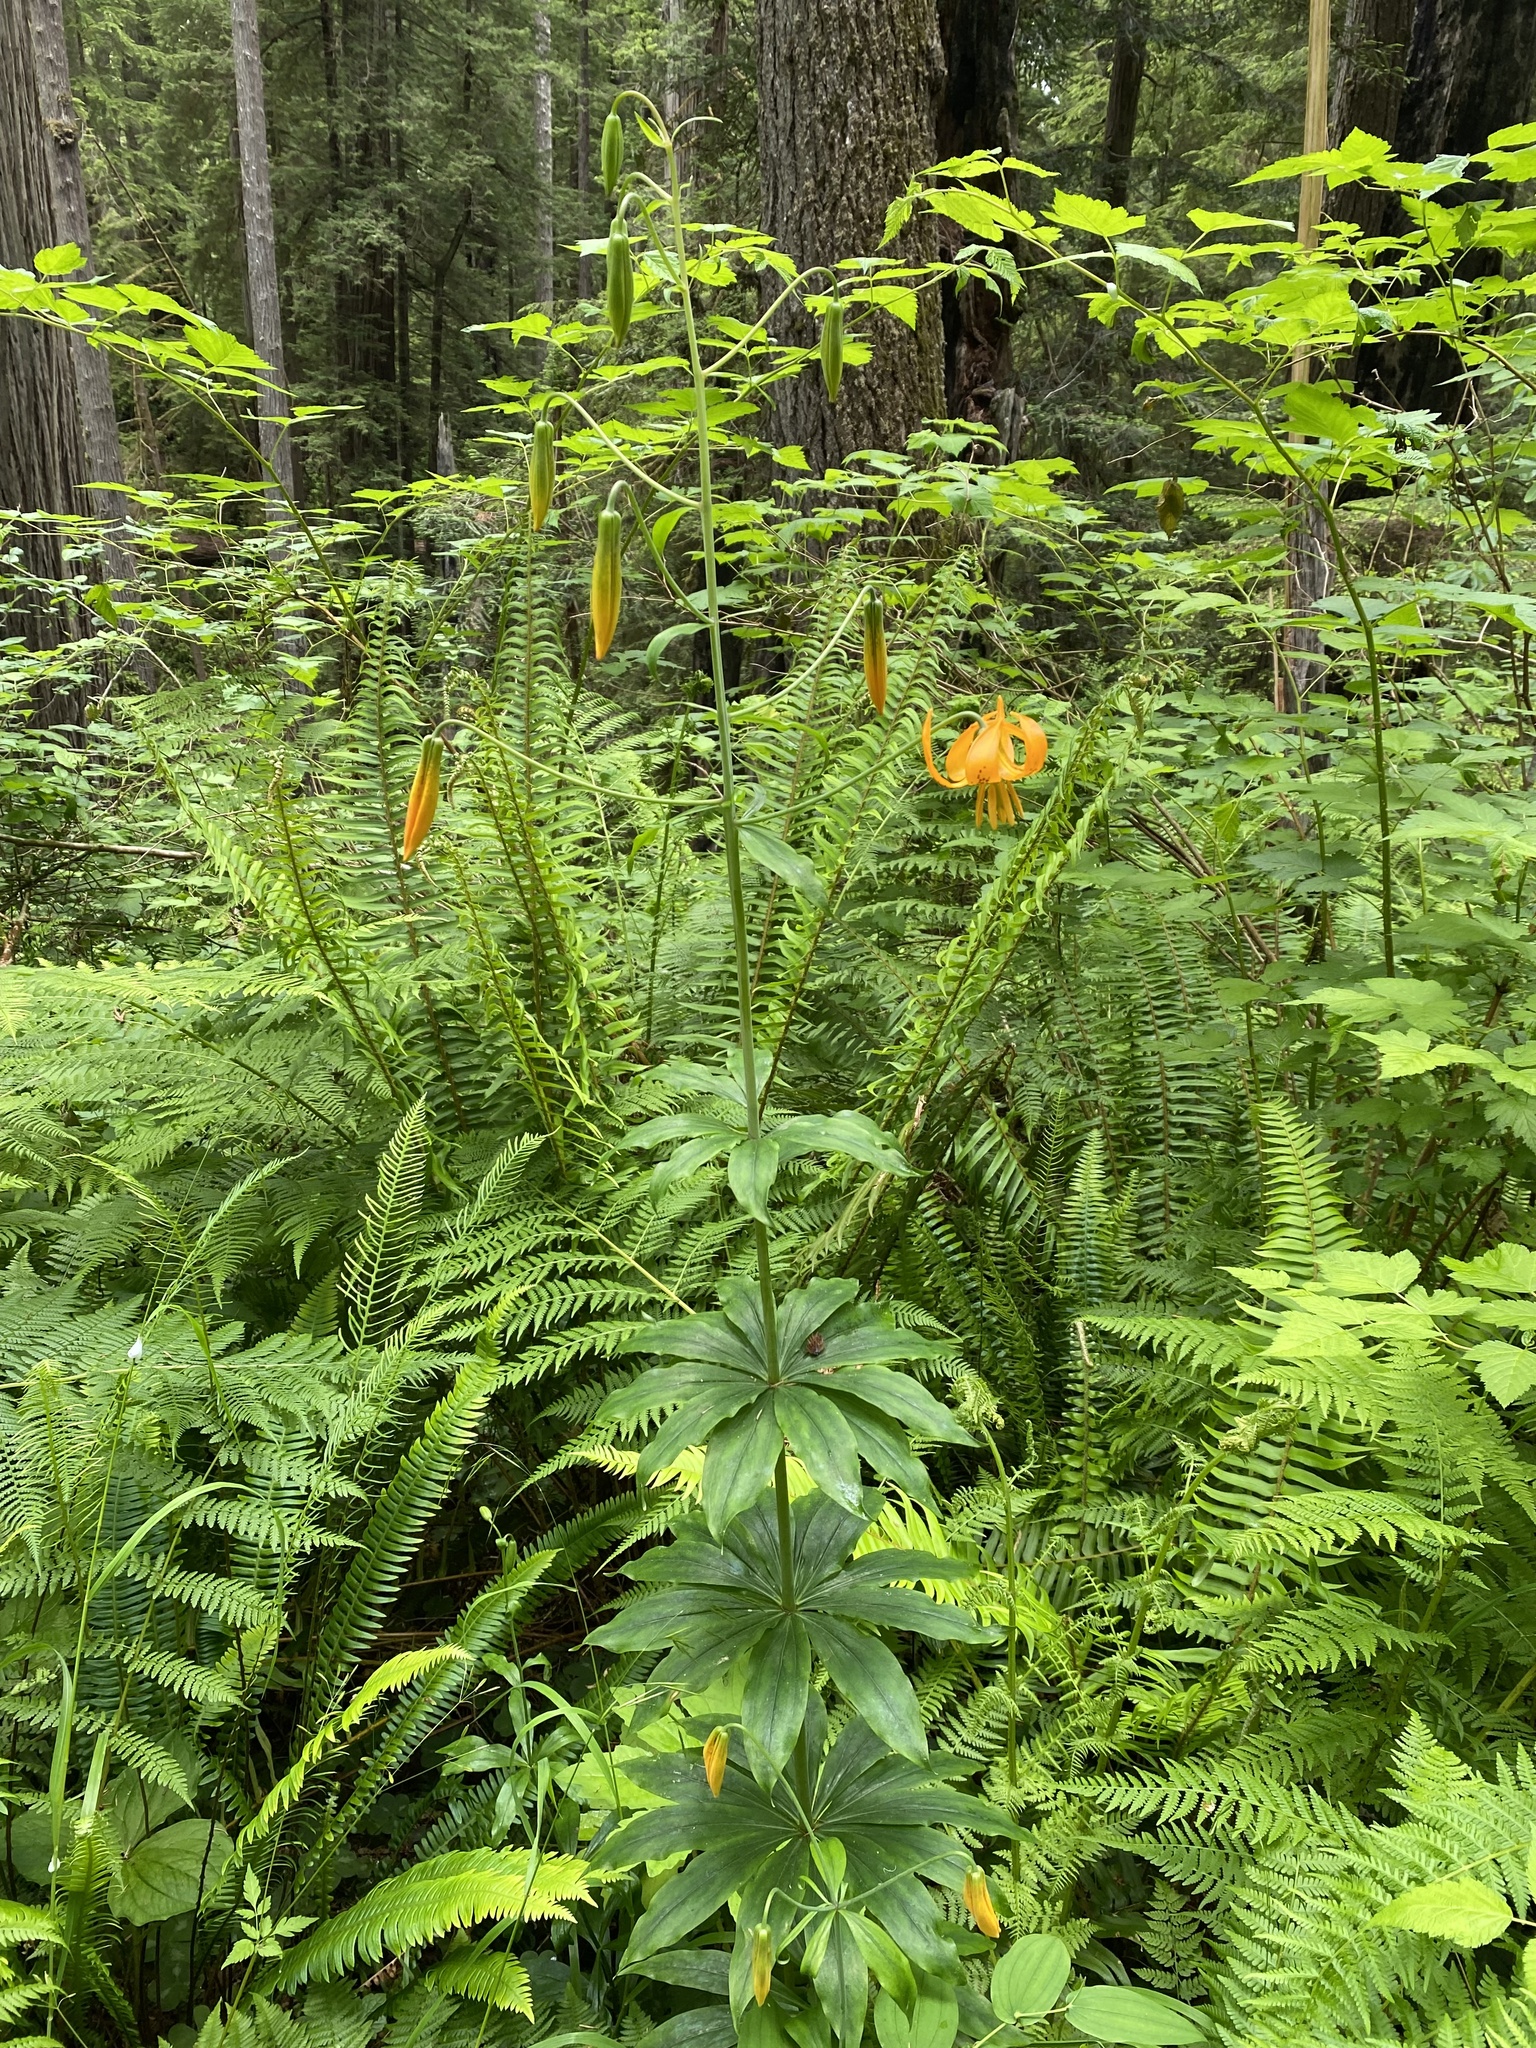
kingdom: Plantae
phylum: Tracheophyta
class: Liliopsida
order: Liliales
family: Liliaceae
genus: Lilium
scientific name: Lilium columbianum
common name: Columbia lily
